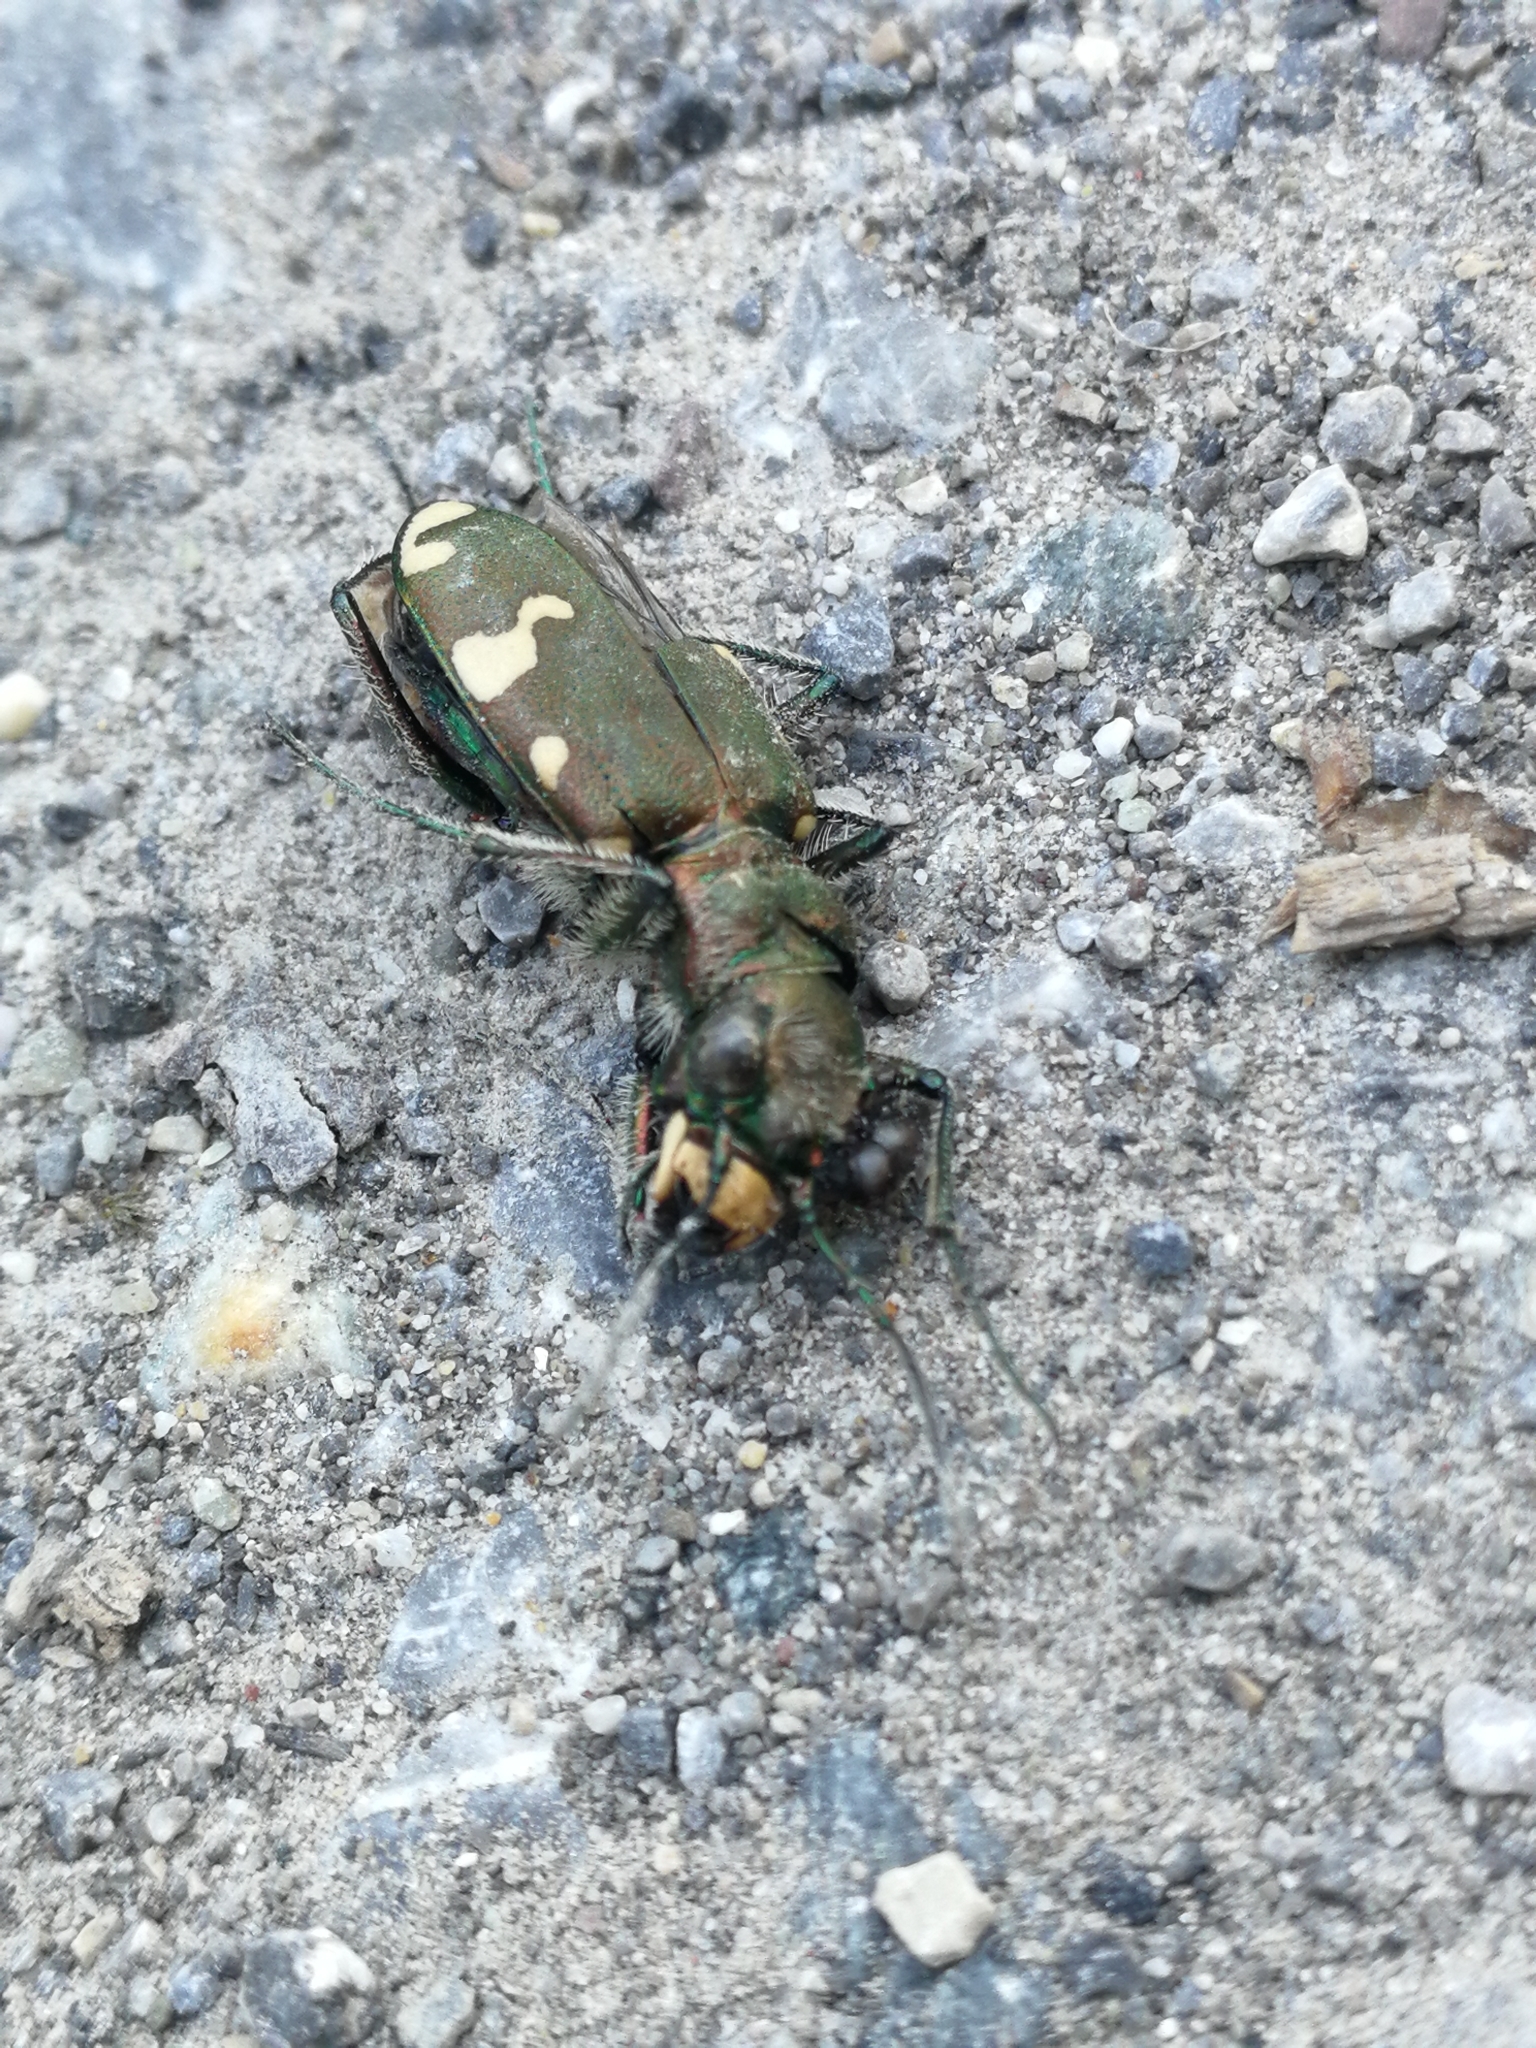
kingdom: Animalia
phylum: Arthropoda
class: Insecta
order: Coleoptera
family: Carabidae
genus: Cicindela
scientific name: Cicindela sylvicola
